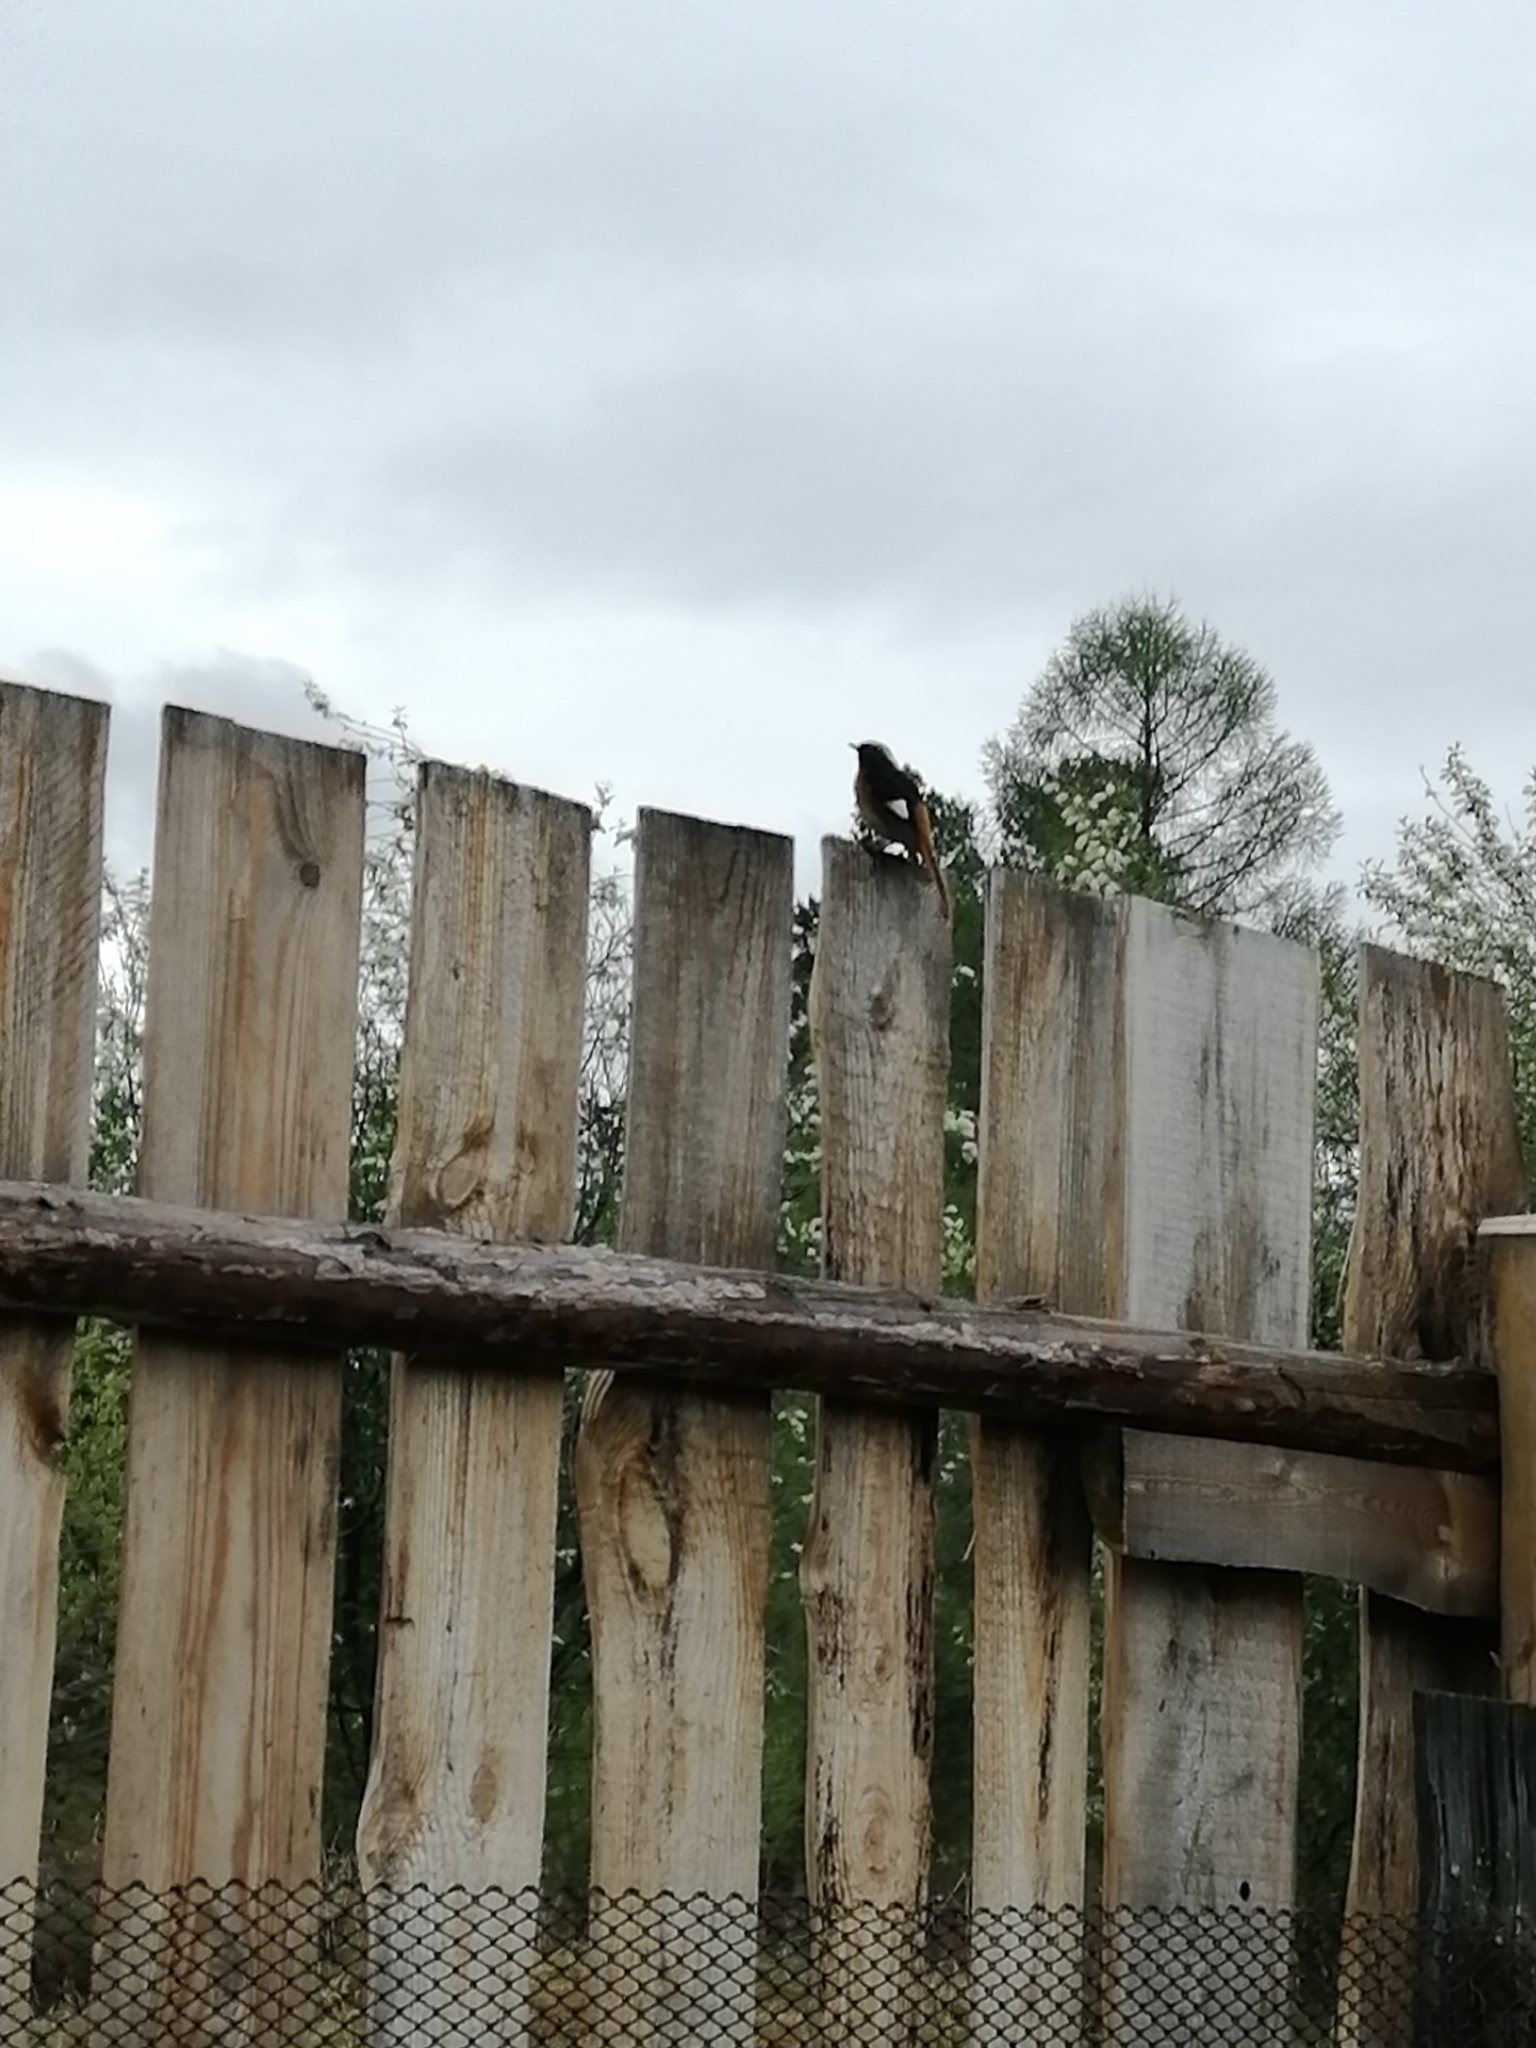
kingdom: Animalia
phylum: Chordata
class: Aves
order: Passeriformes
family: Muscicapidae
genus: Phoenicurus
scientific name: Phoenicurus auroreus
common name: Daurian redstart
